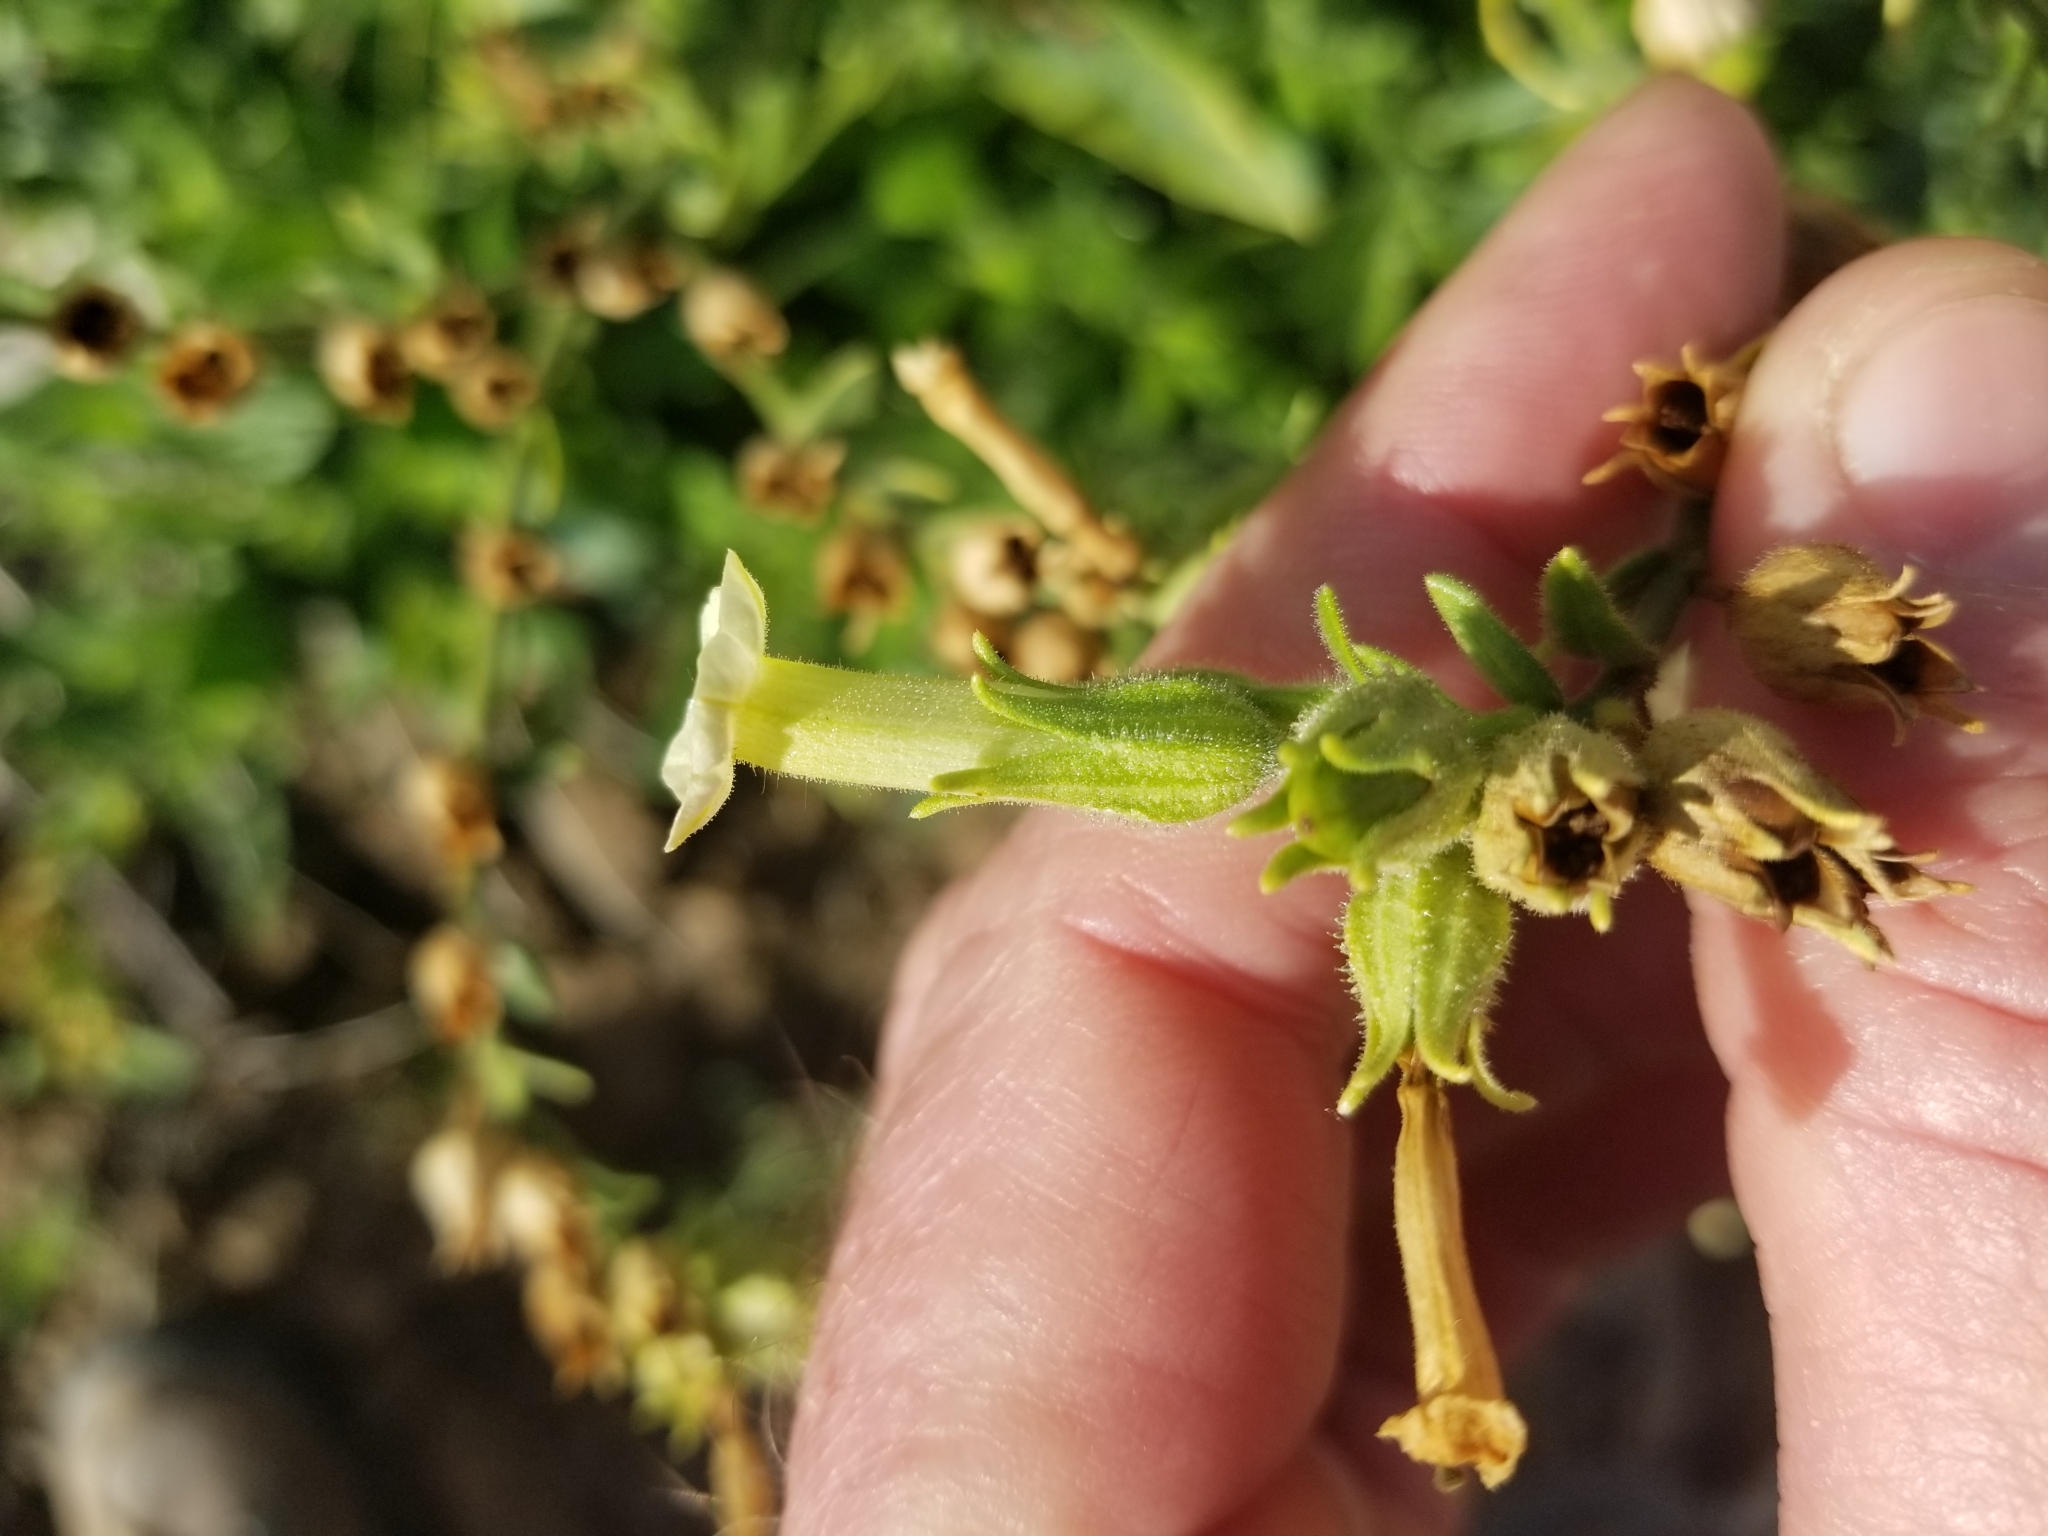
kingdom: Plantae
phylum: Tracheophyta
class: Magnoliopsida
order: Solanales
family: Solanaceae
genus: Nicotiana
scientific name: Nicotiana obtusifolia
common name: Desert tobacco
